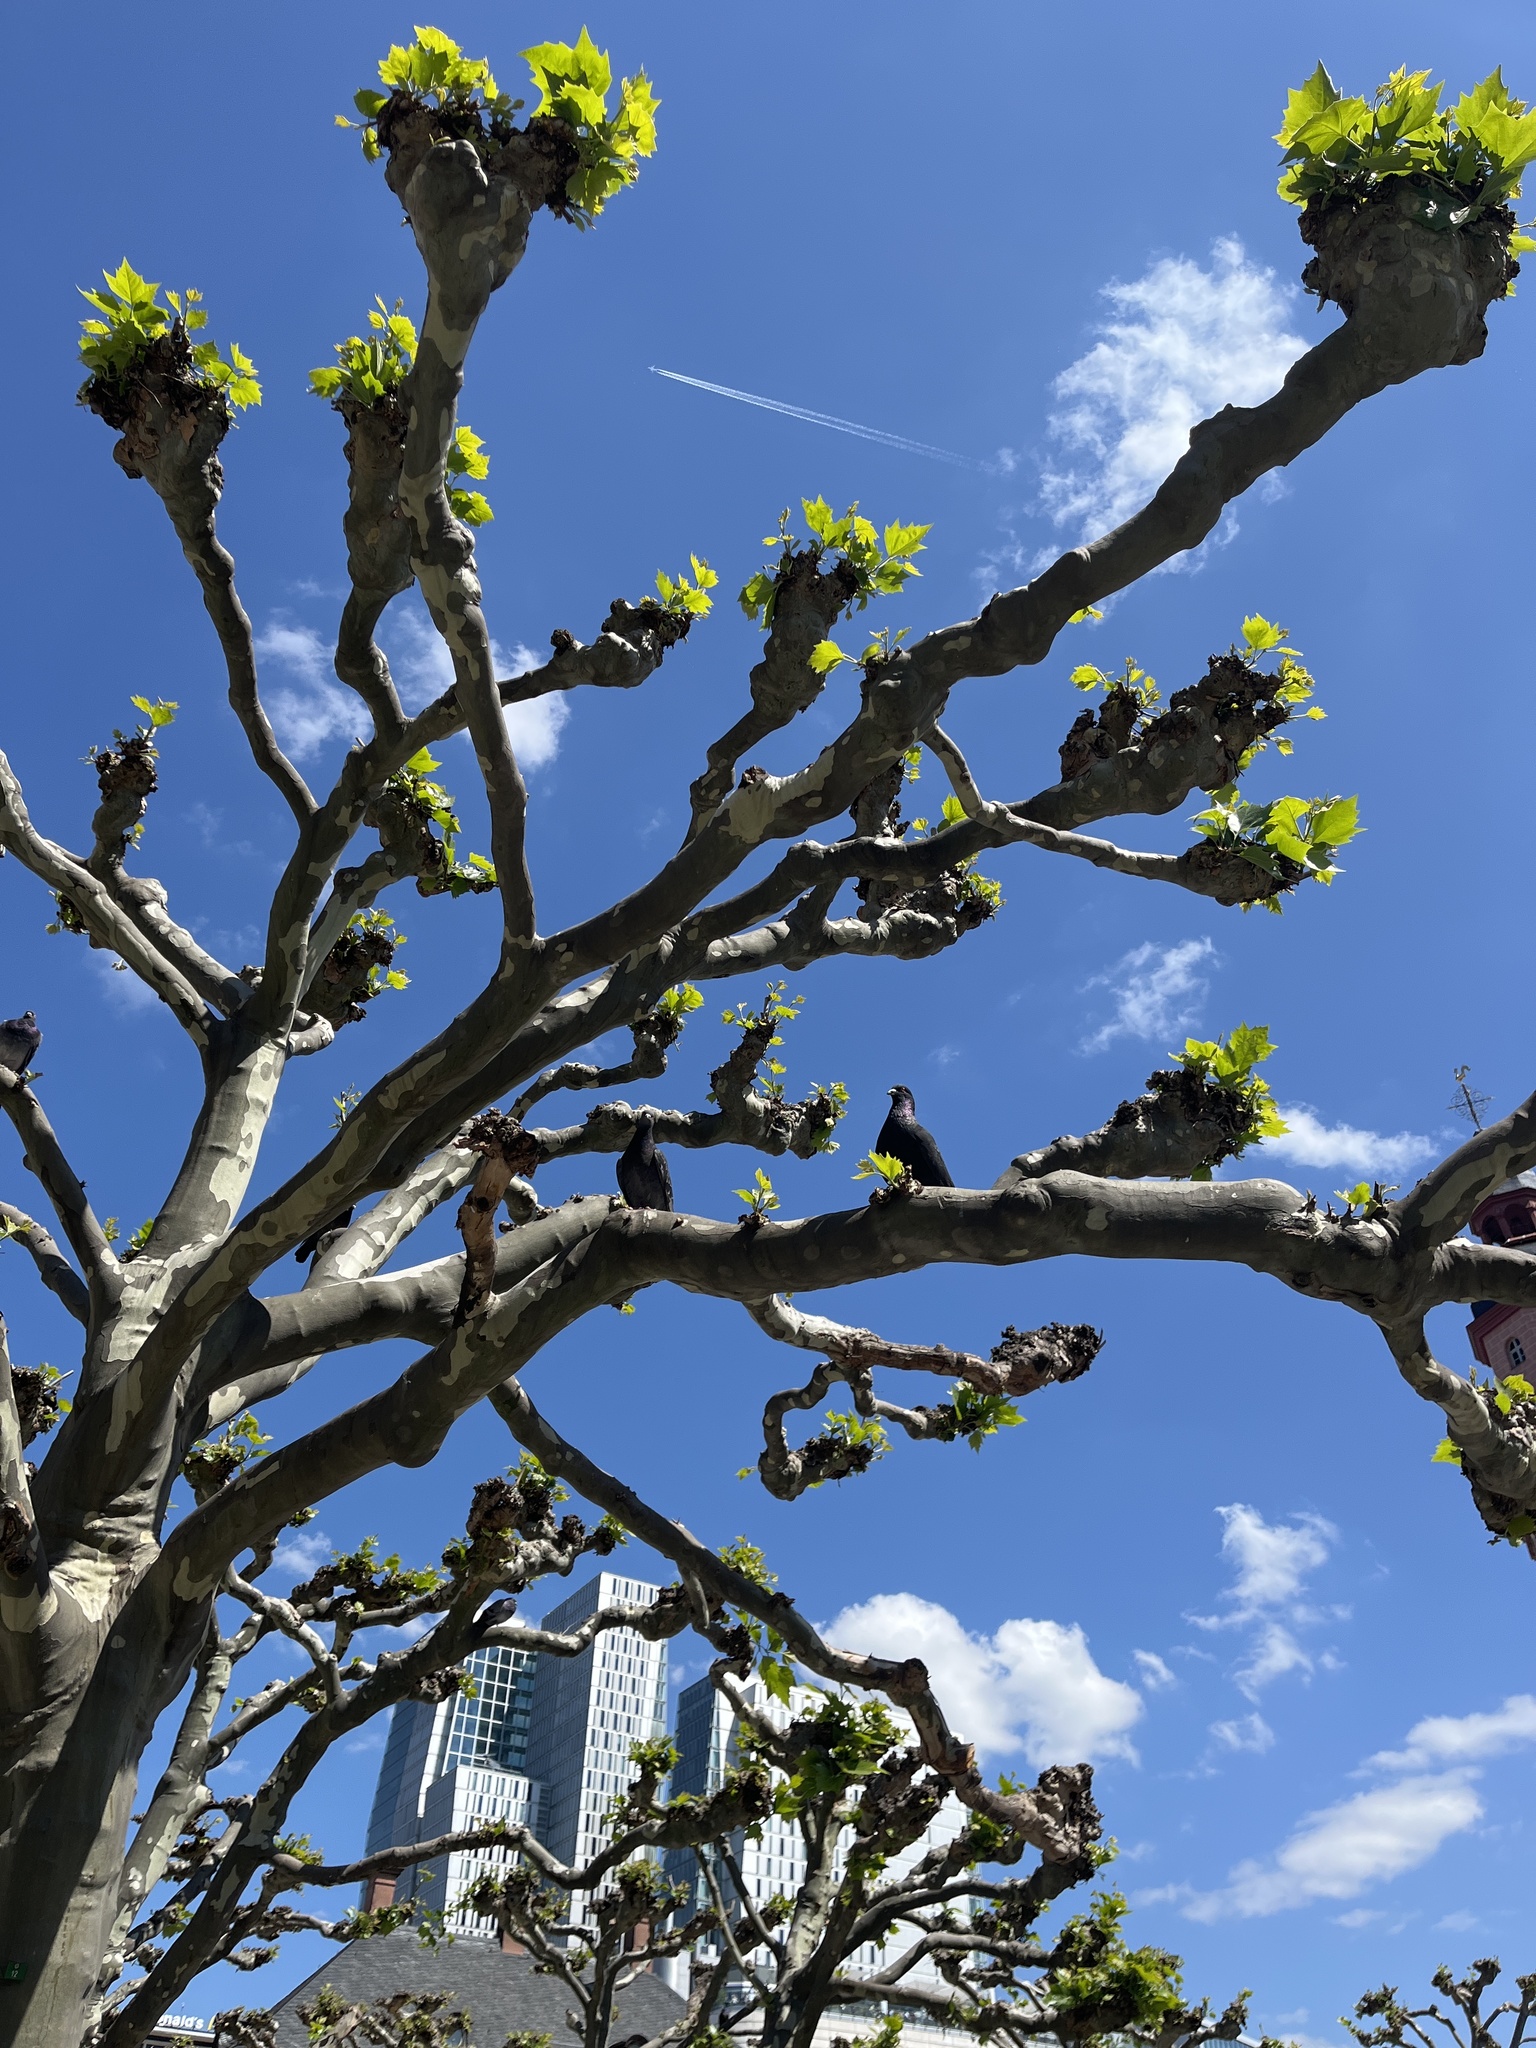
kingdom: Animalia
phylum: Chordata
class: Aves
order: Columbiformes
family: Columbidae
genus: Columba
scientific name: Columba livia
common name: Rock pigeon
